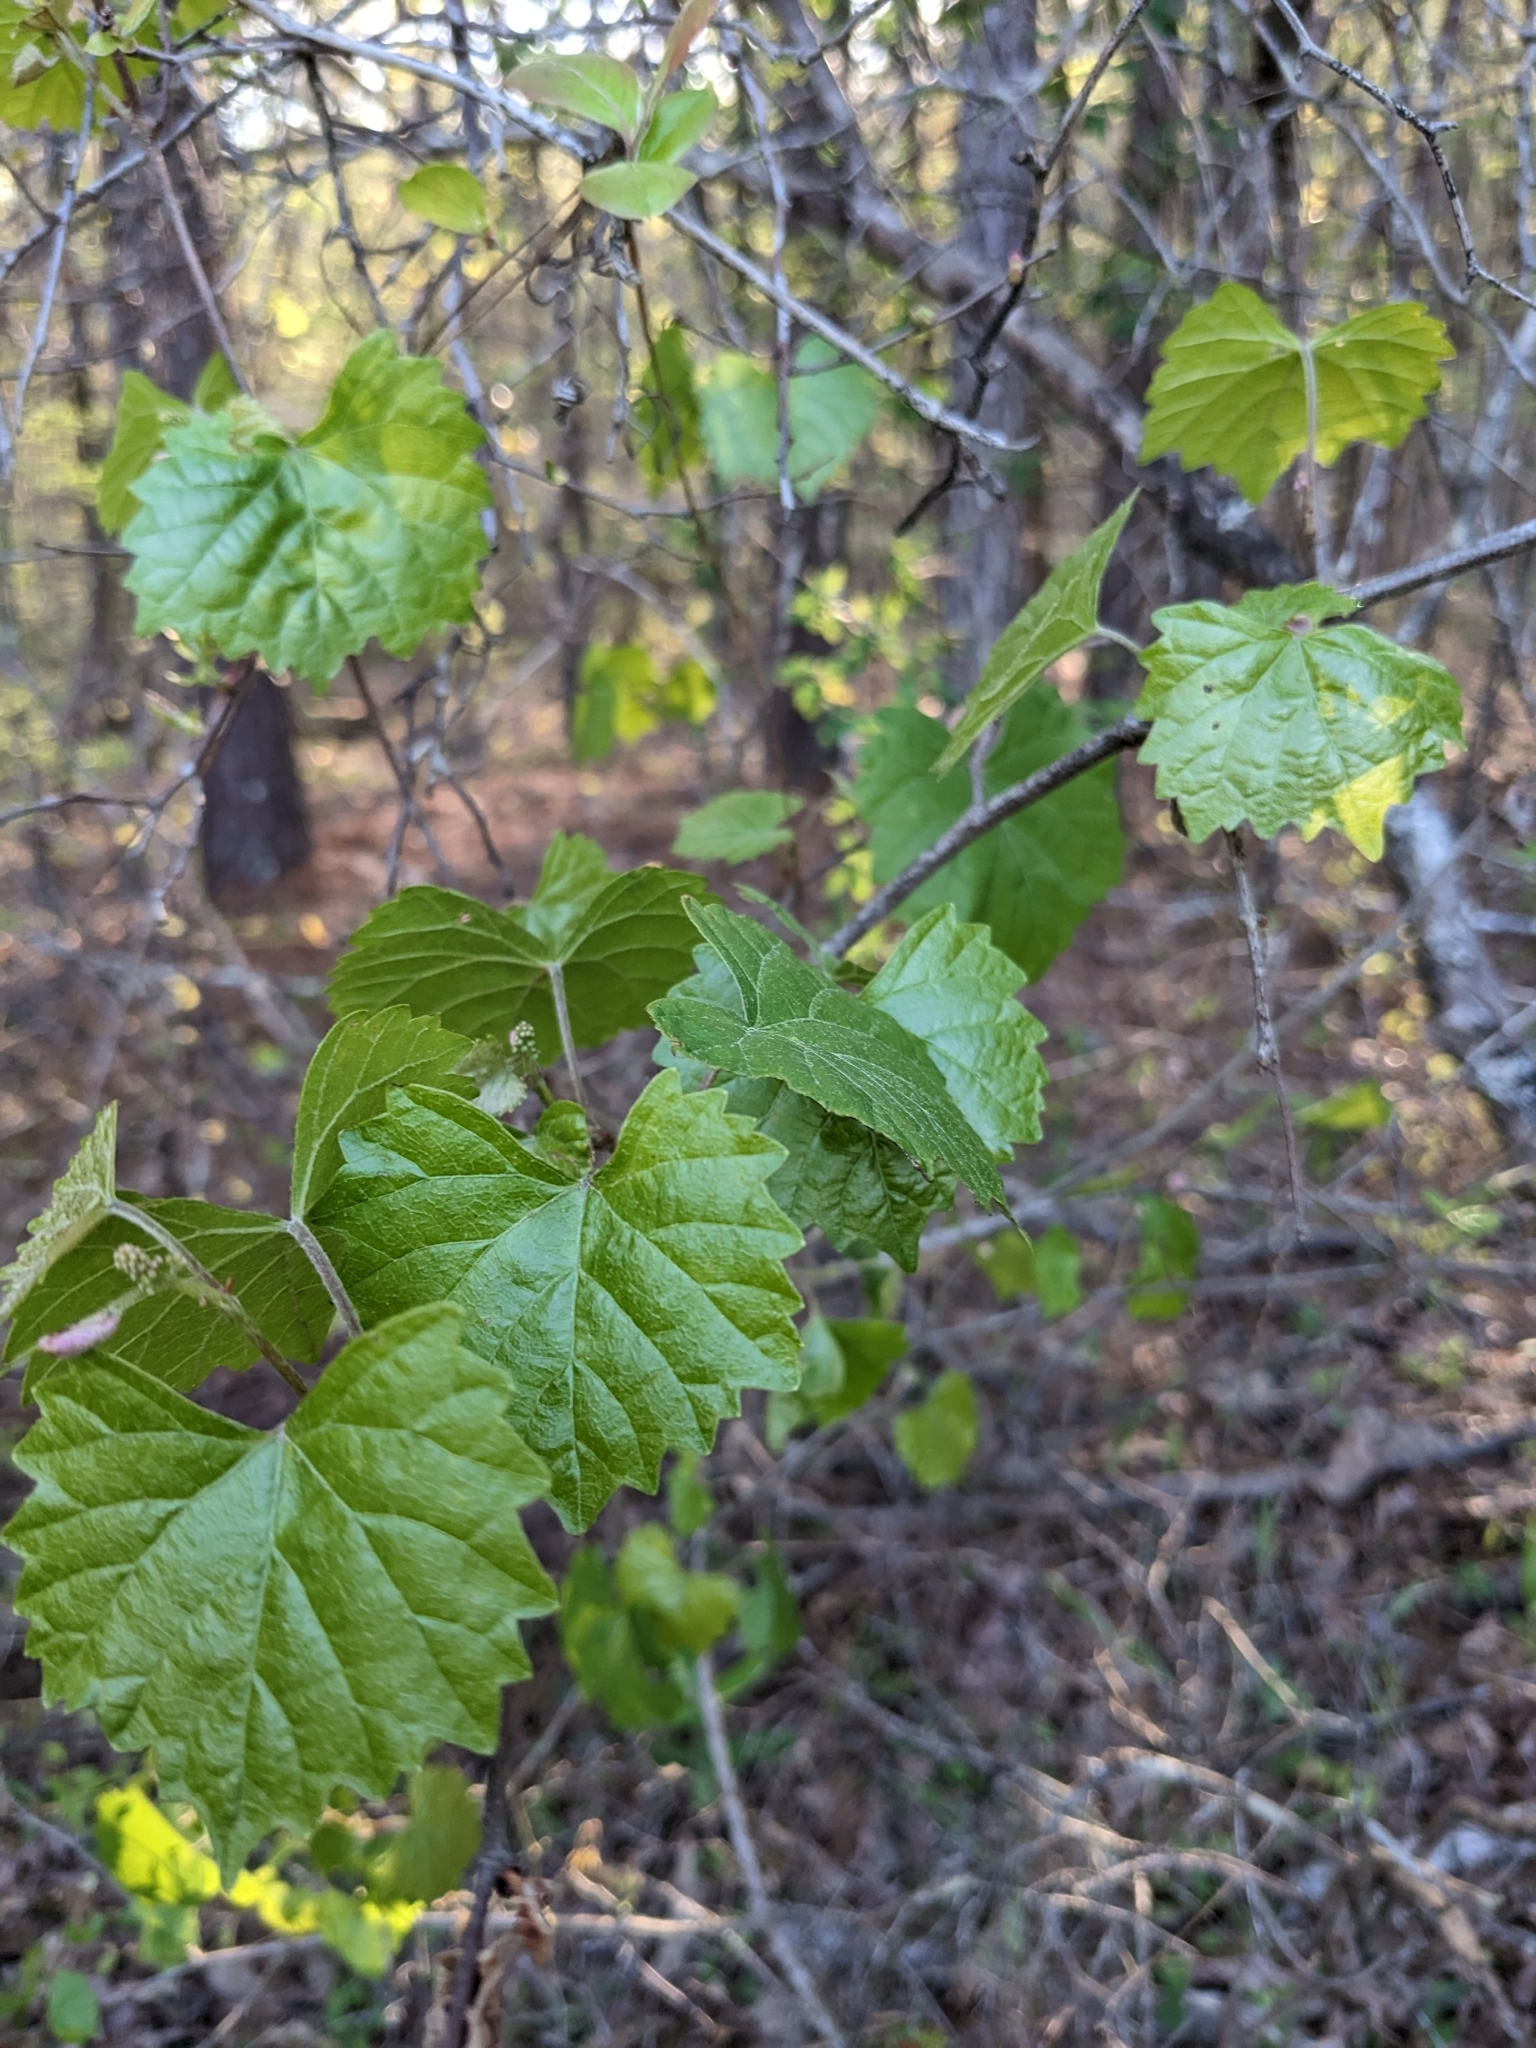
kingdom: Plantae
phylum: Tracheophyta
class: Magnoliopsida
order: Vitales
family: Vitaceae
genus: Vitis
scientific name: Vitis rotundifolia
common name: Muscadine grape
